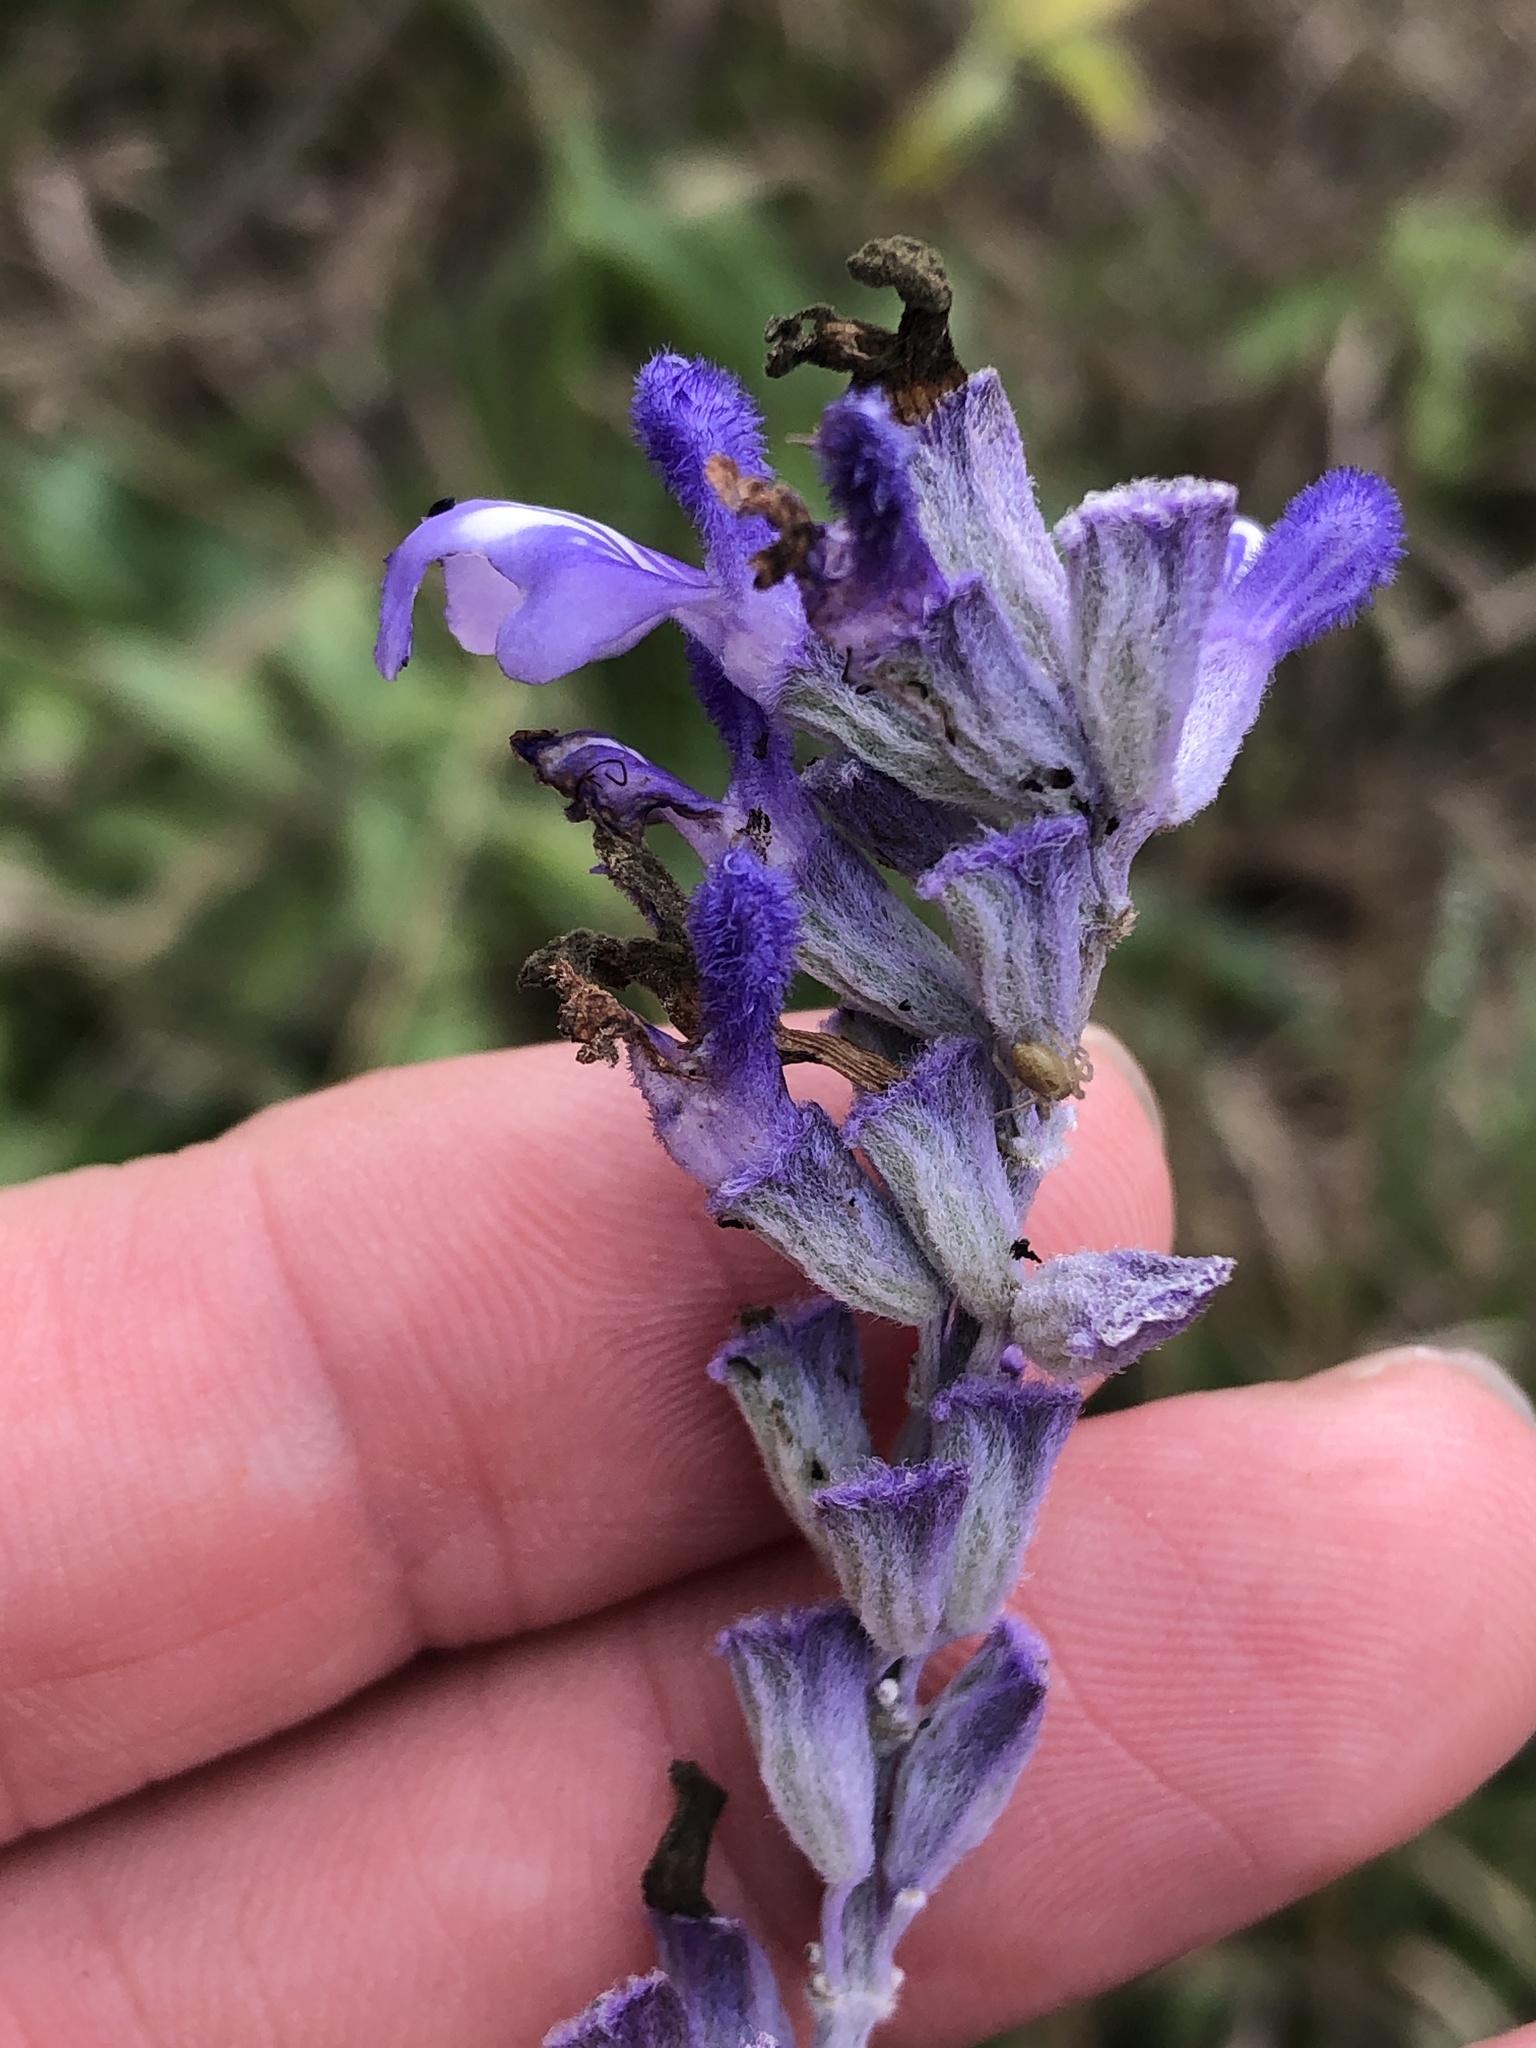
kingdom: Plantae
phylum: Tracheophyta
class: Magnoliopsida
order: Lamiales
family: Lamiaceae
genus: Salvia
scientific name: Salvia farinacea
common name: Mealy sage
